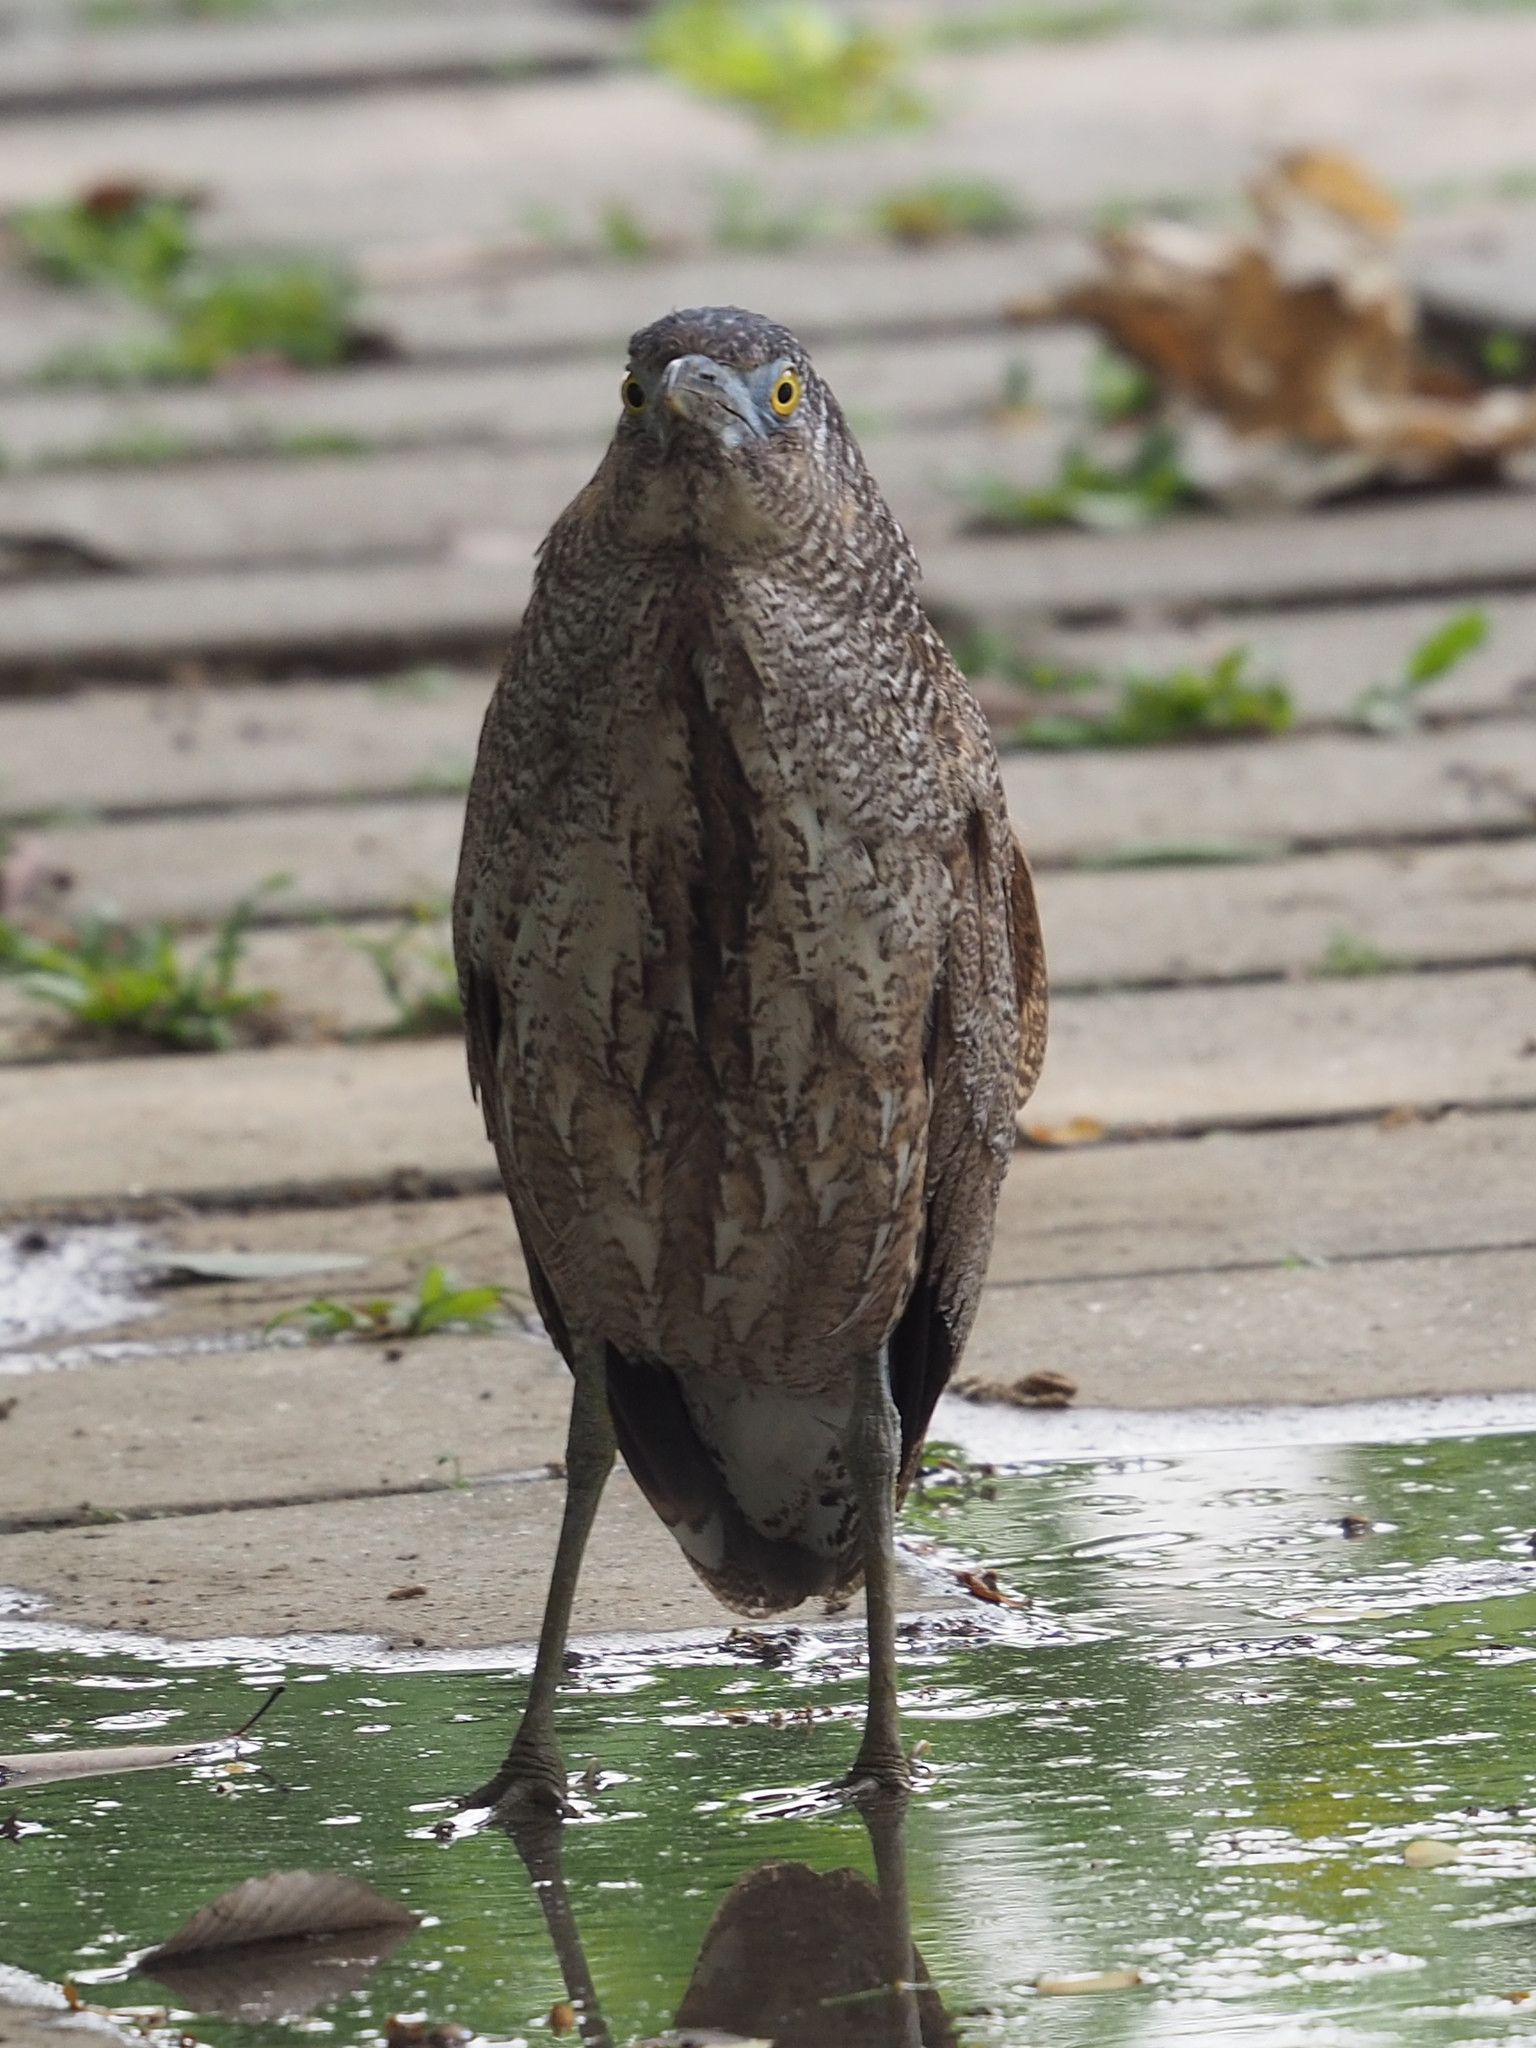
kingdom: Animalia
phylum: Chordata
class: Aves
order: Pelecaniformes
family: Ardeidae
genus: Gorsachius
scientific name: Gorsachius melanolophus
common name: Malayan night heron
